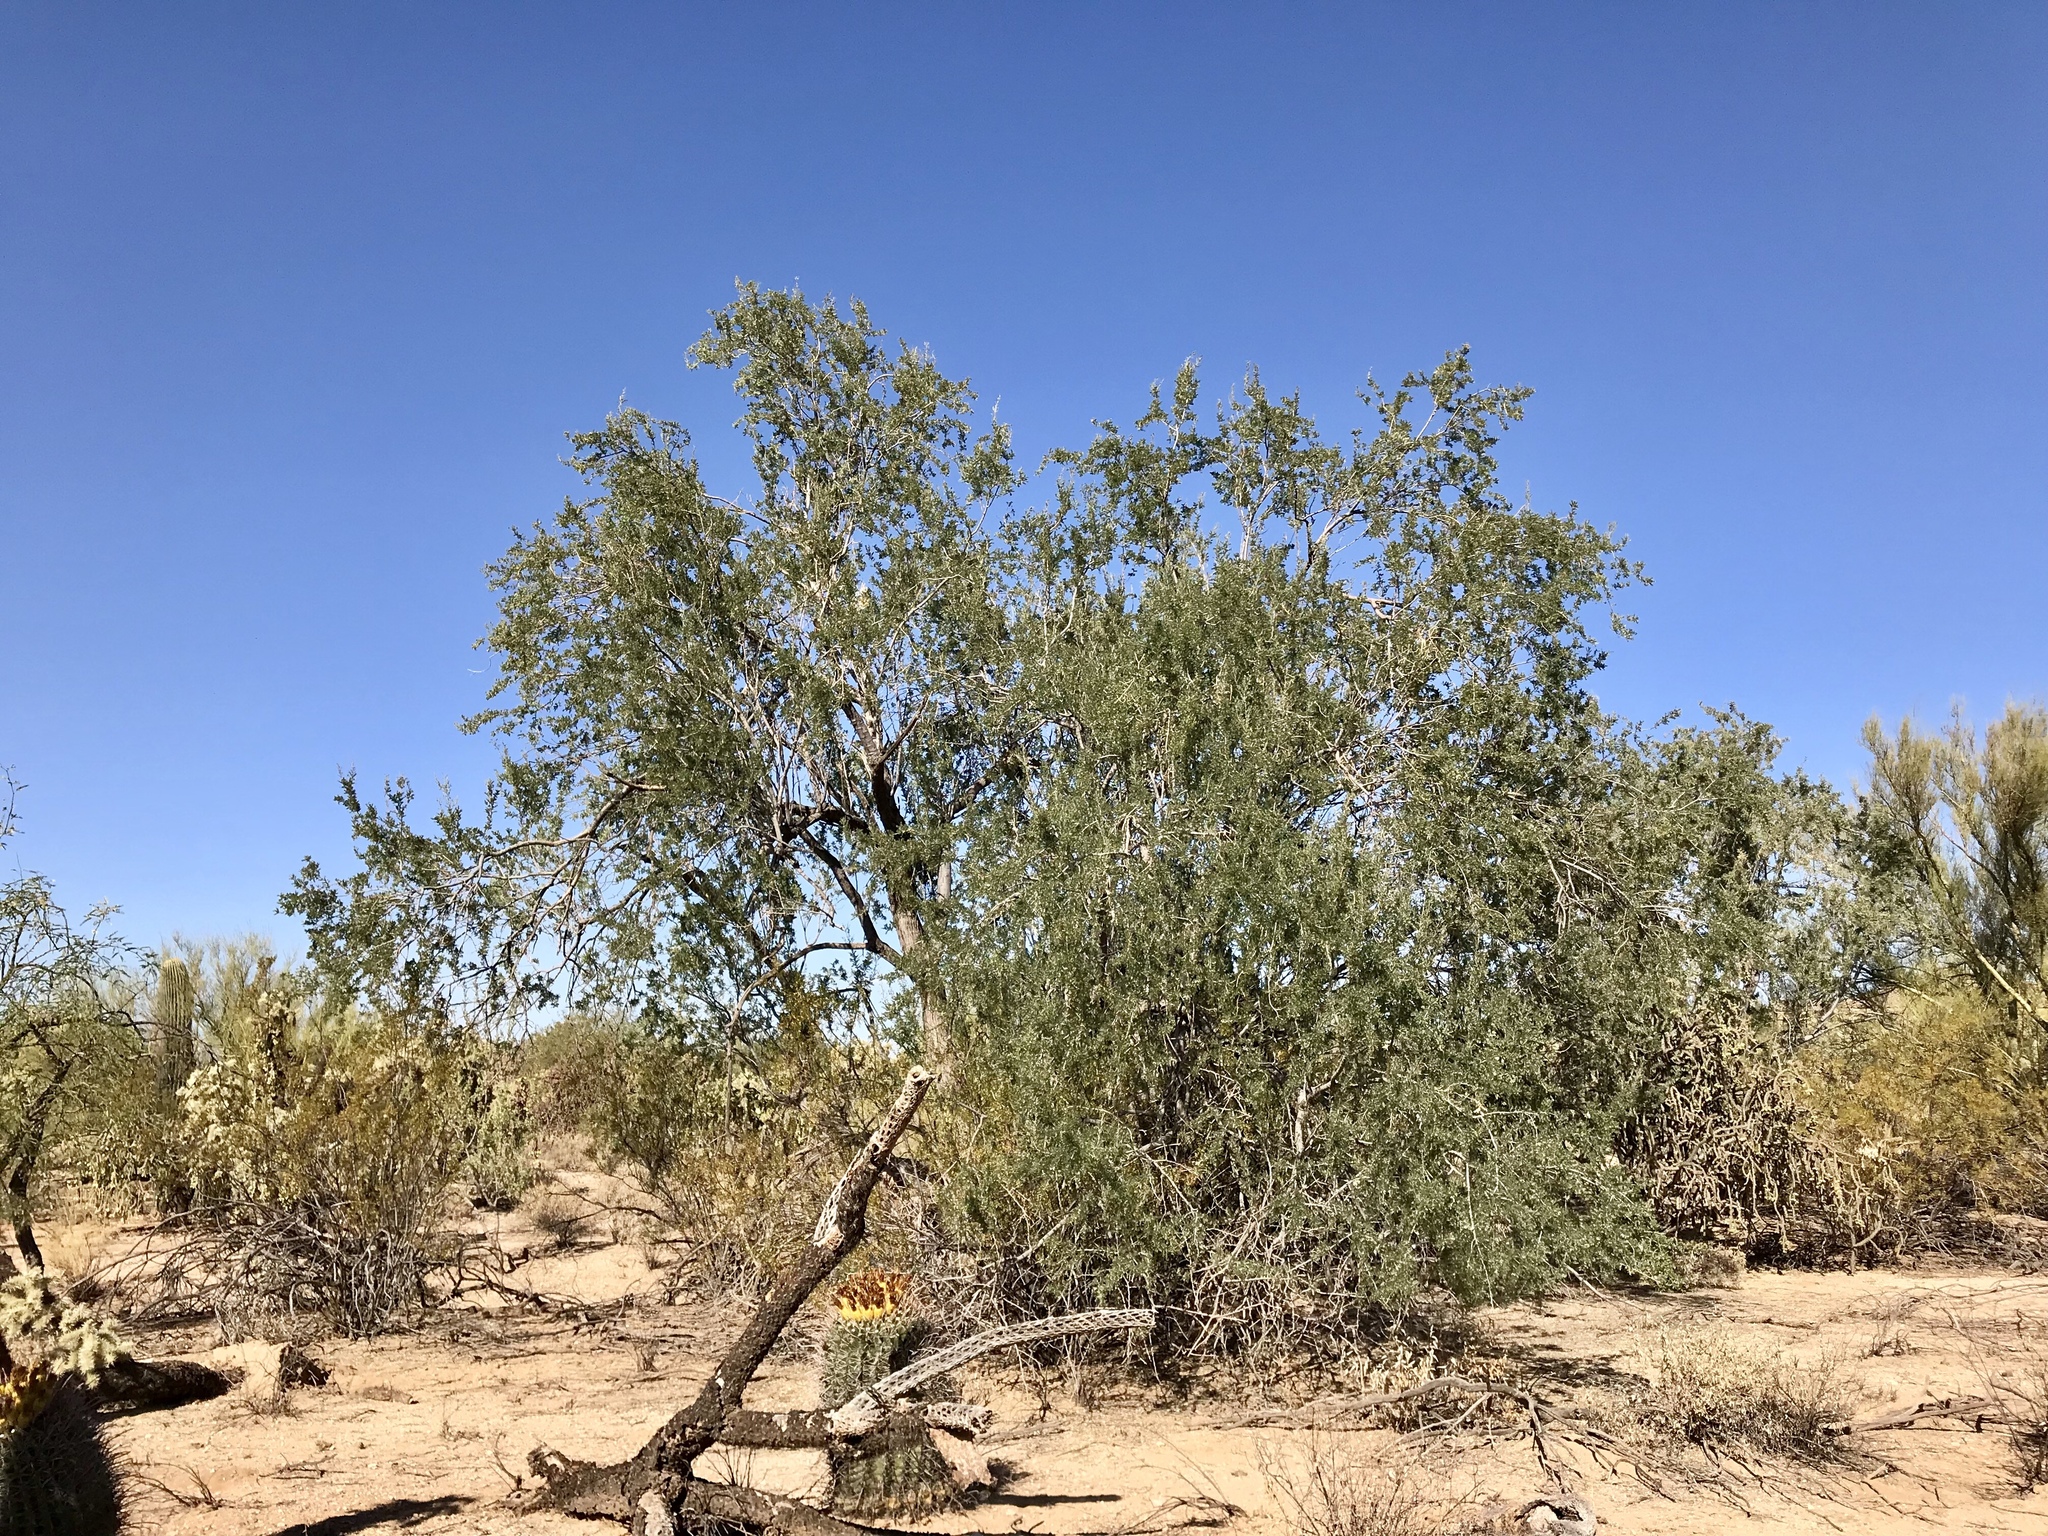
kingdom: Plantae
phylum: Tracheophyta
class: Magnoliopsida
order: Fabales
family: Fabaceae
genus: Olneya
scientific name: Olneya tesota
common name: Desert ironwood
